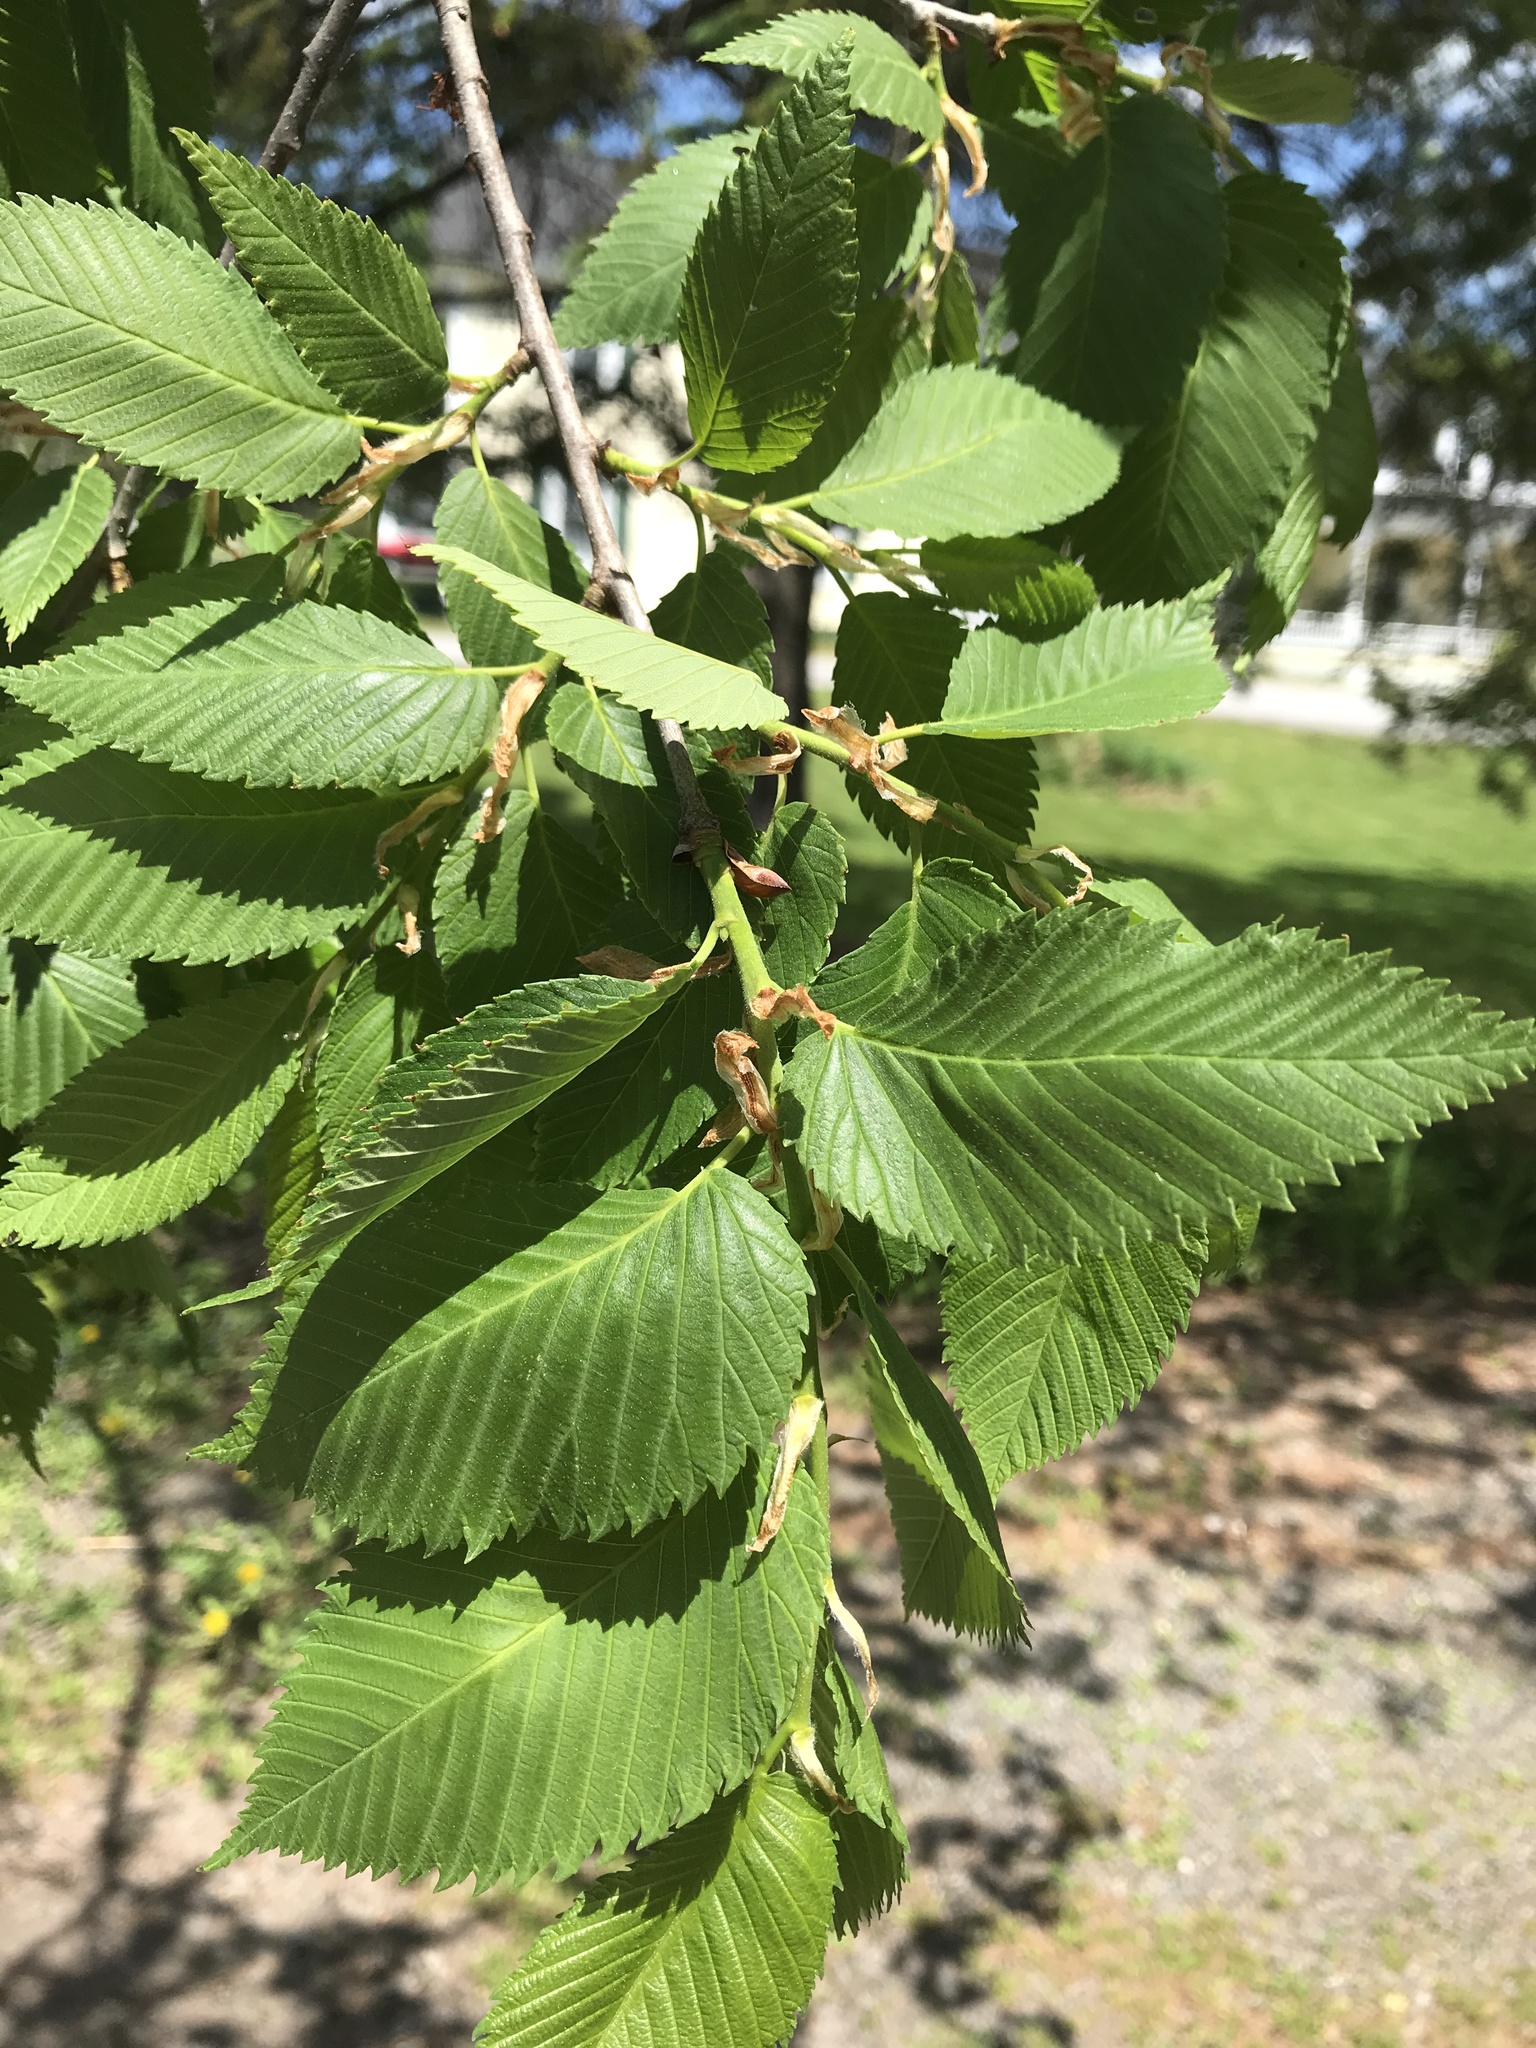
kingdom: Plantae
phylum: Tracheophyta
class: Magnoliopsida
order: Rosales
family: Ulmaceae
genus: Ulmus
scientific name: Ulmus americana
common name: American elm
